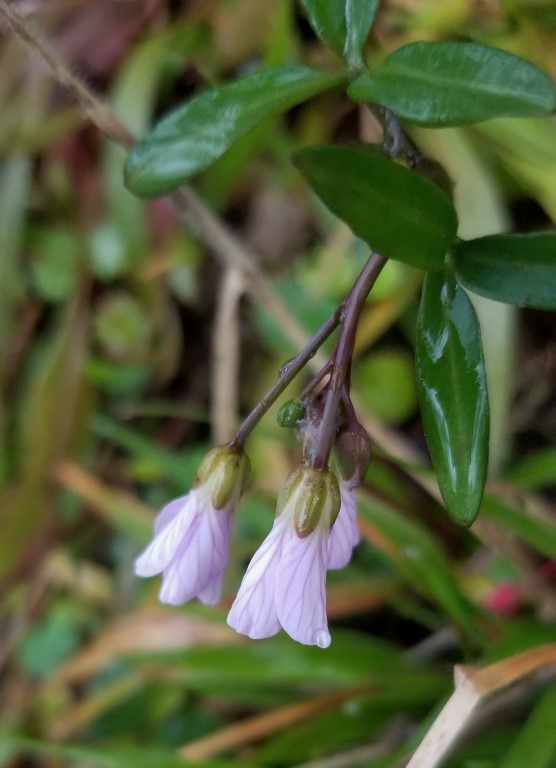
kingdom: Plantae
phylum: Tracheophyta
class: Magnoliopsida
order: Brassicales
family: Brassicaceae
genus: Cardamine
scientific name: Cardamine nuttallii
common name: Nuttall's toothwort
